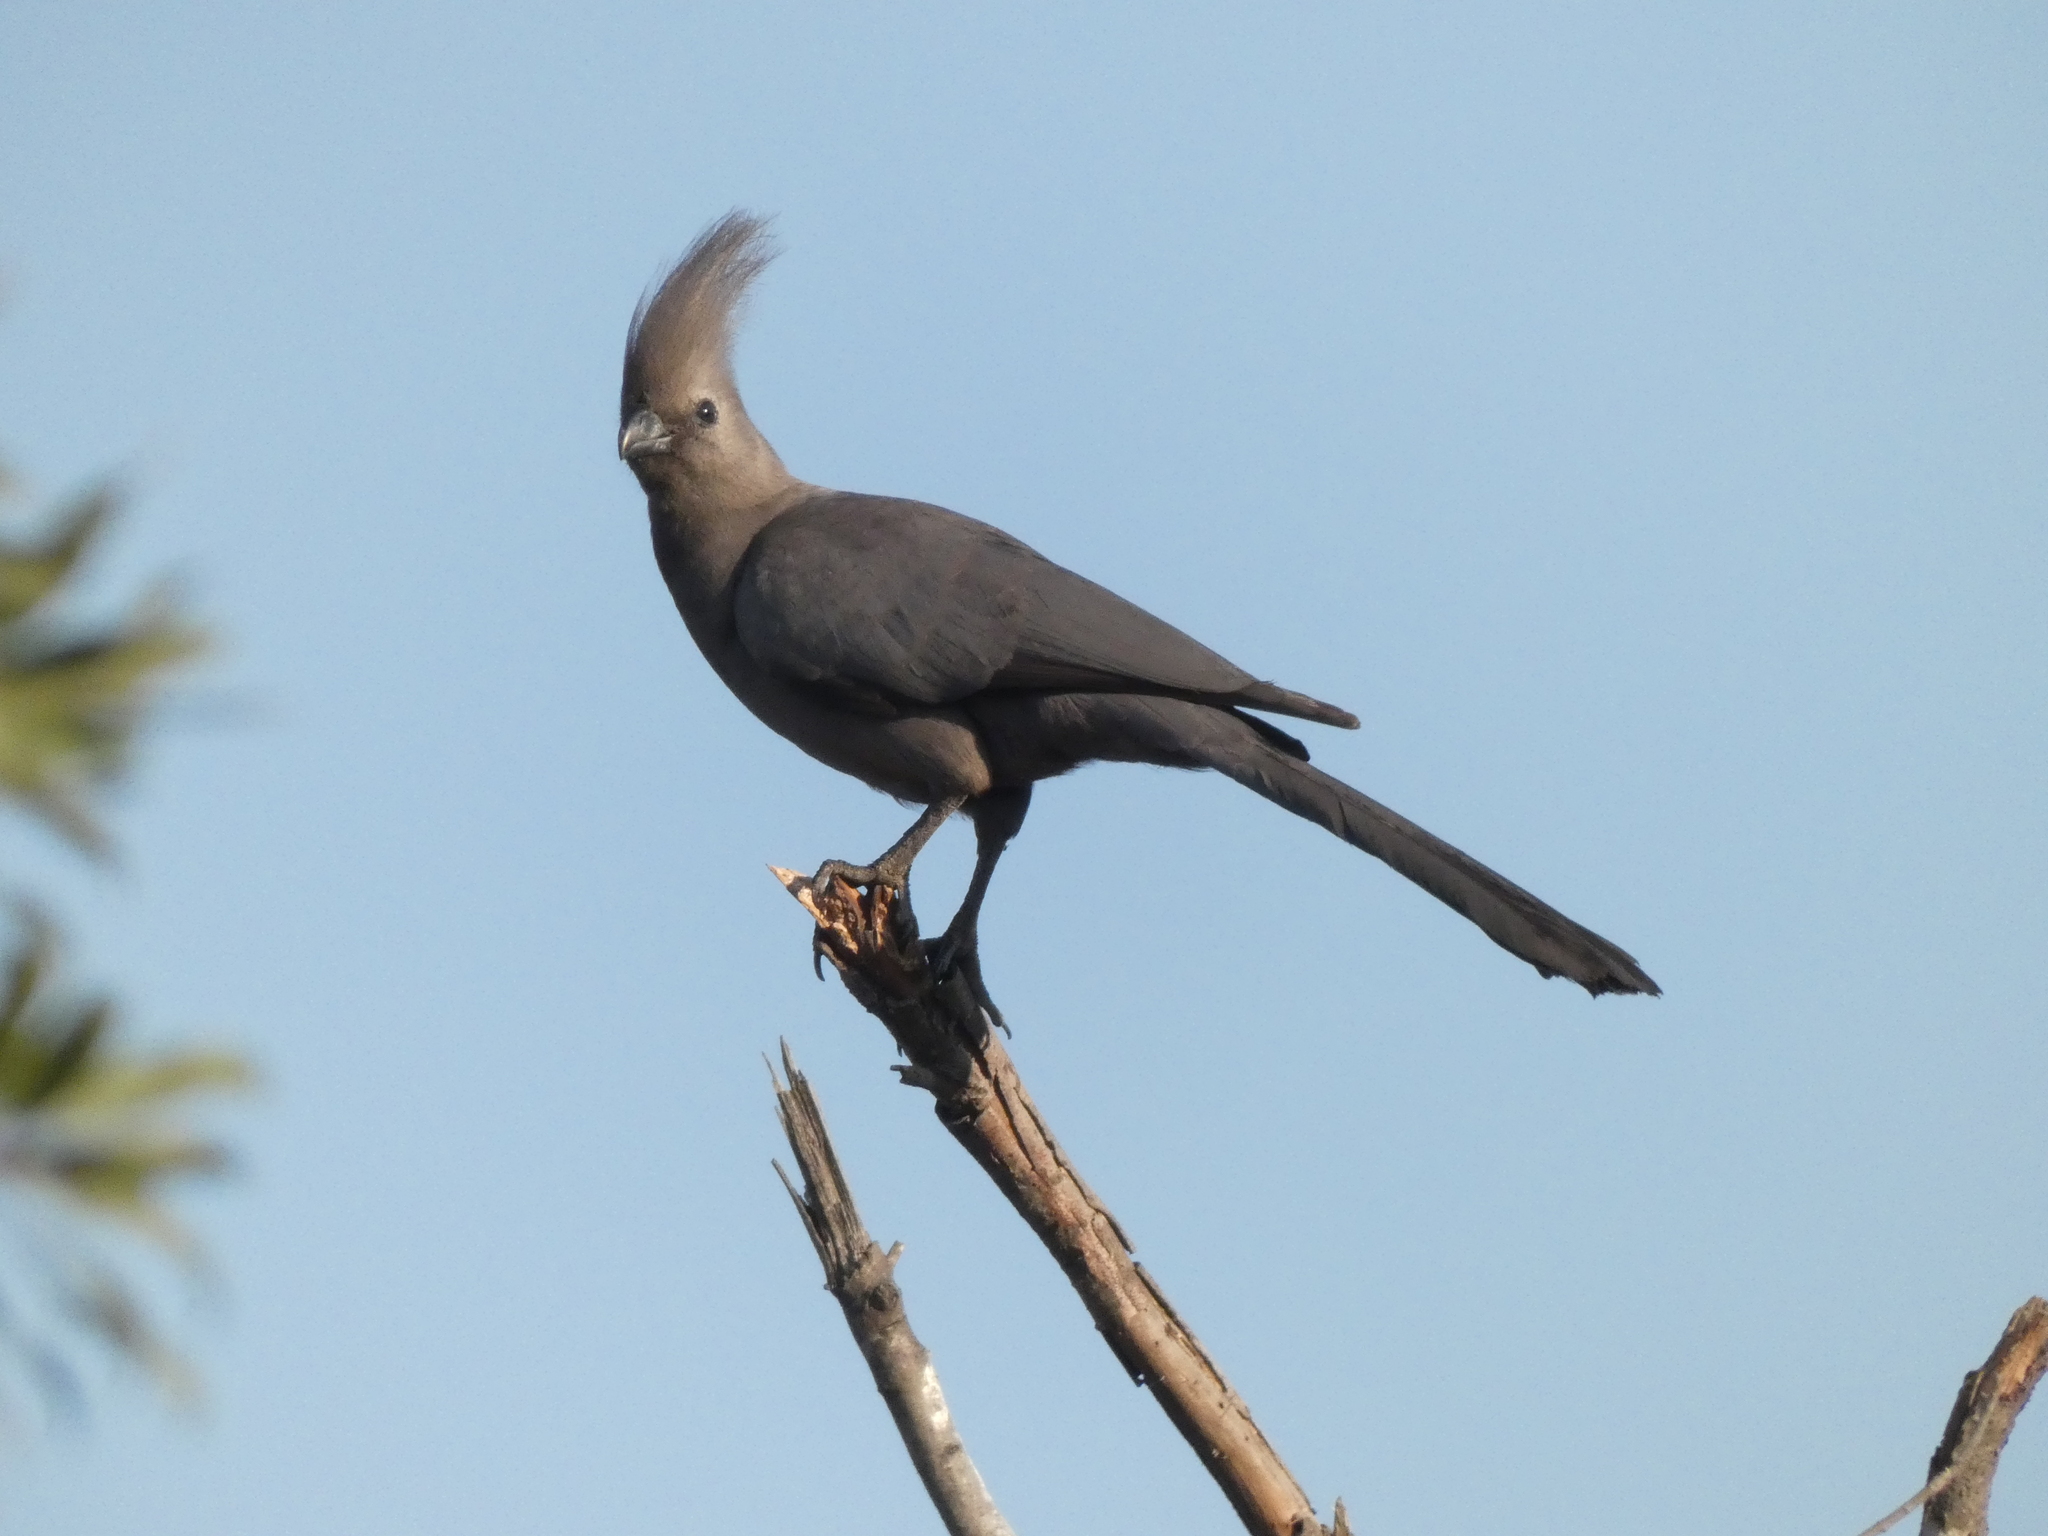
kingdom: Animalia
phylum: Chordata
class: Aves
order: Musophagiformes
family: Musophagidae
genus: Corythaixoides
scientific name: Corythaixoides concolor
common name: Grey go-away-bird
